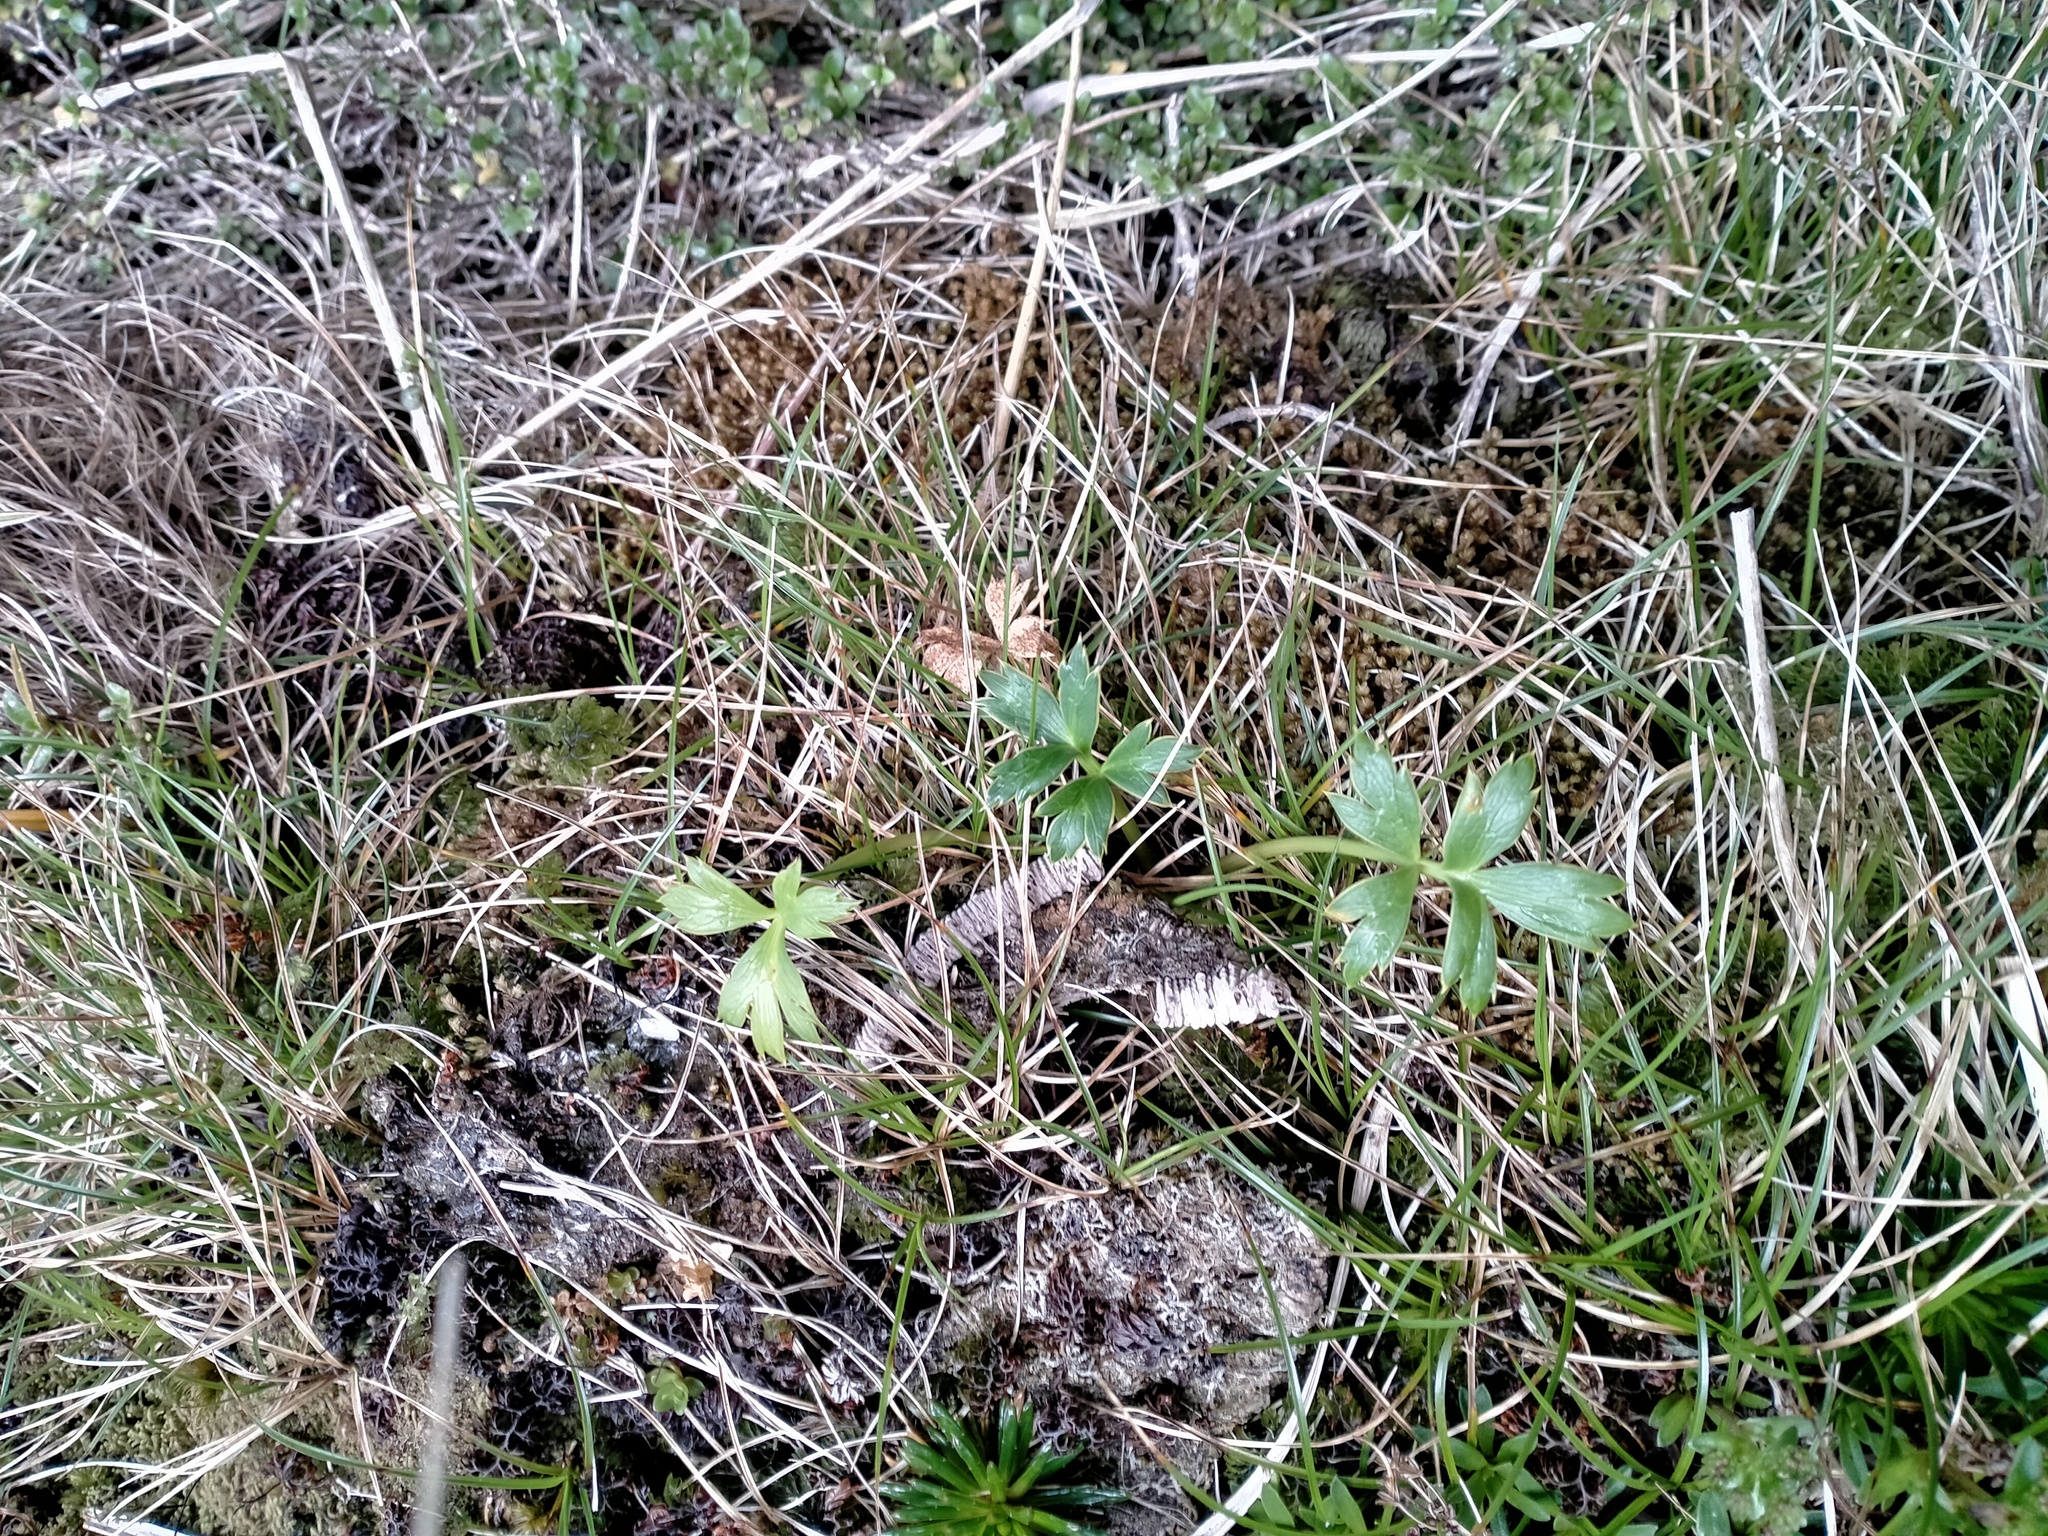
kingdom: Plantae
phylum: Tracheophyta
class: Magnoliopsida
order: Apiales
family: Apiaceae
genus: Anisotome
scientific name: Anisotome latifolia
